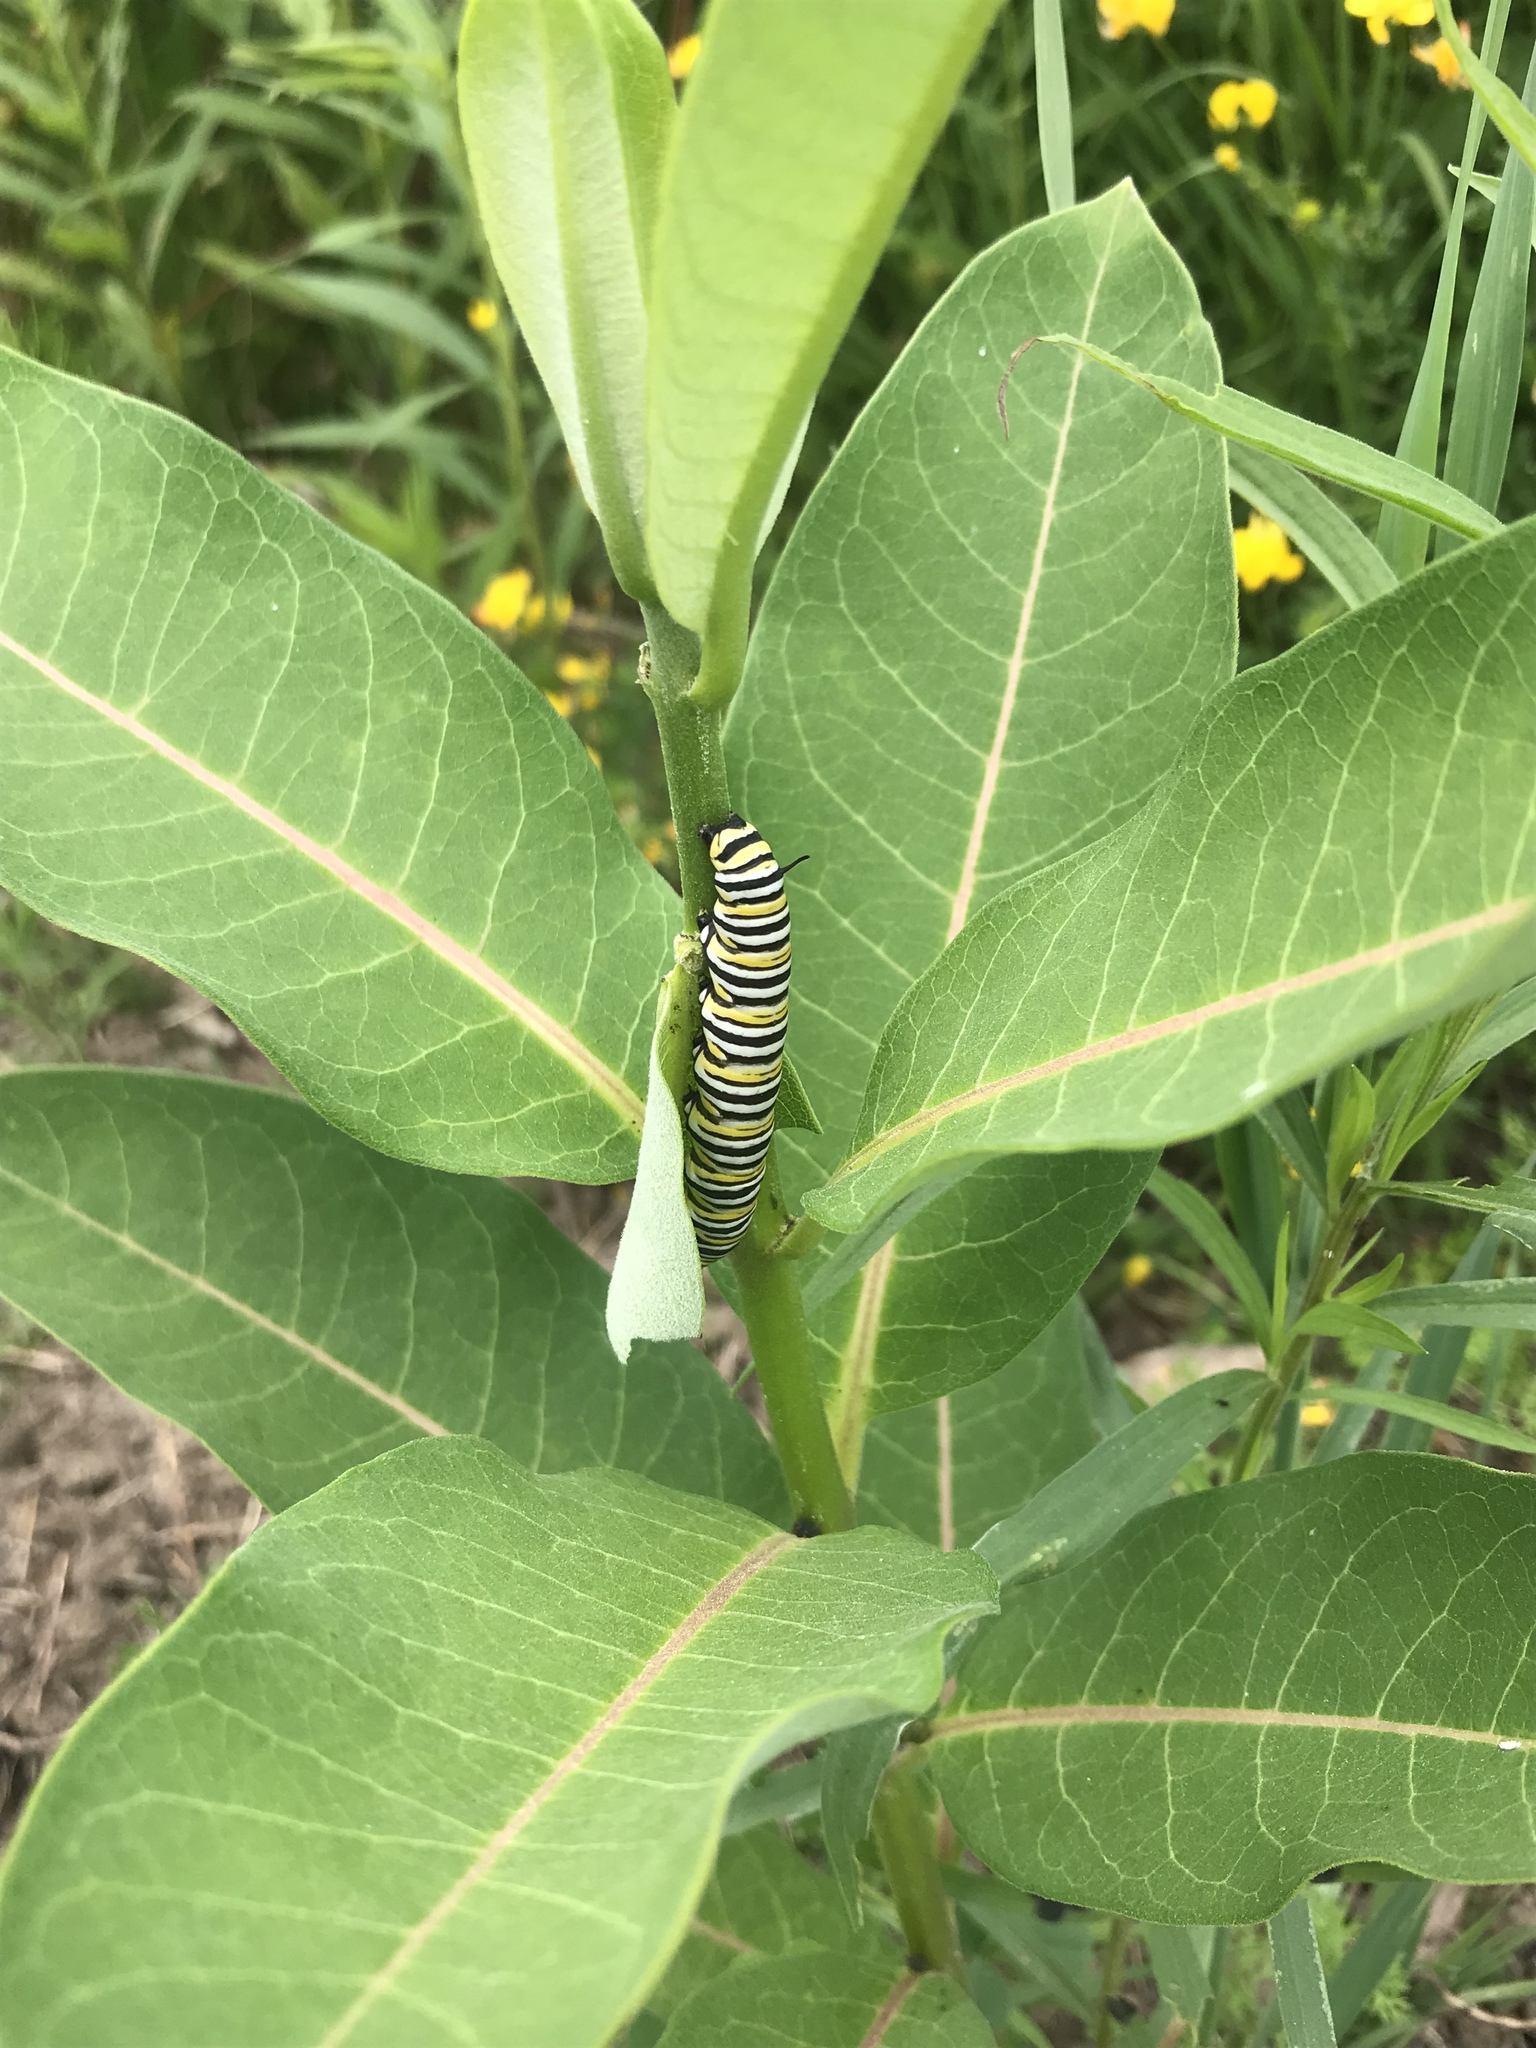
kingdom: Animalia
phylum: Arthropoda
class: Insecta
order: Lepidoptera
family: Nymphalidae
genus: Danaus
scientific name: Danaus plexippus
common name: Monarch
